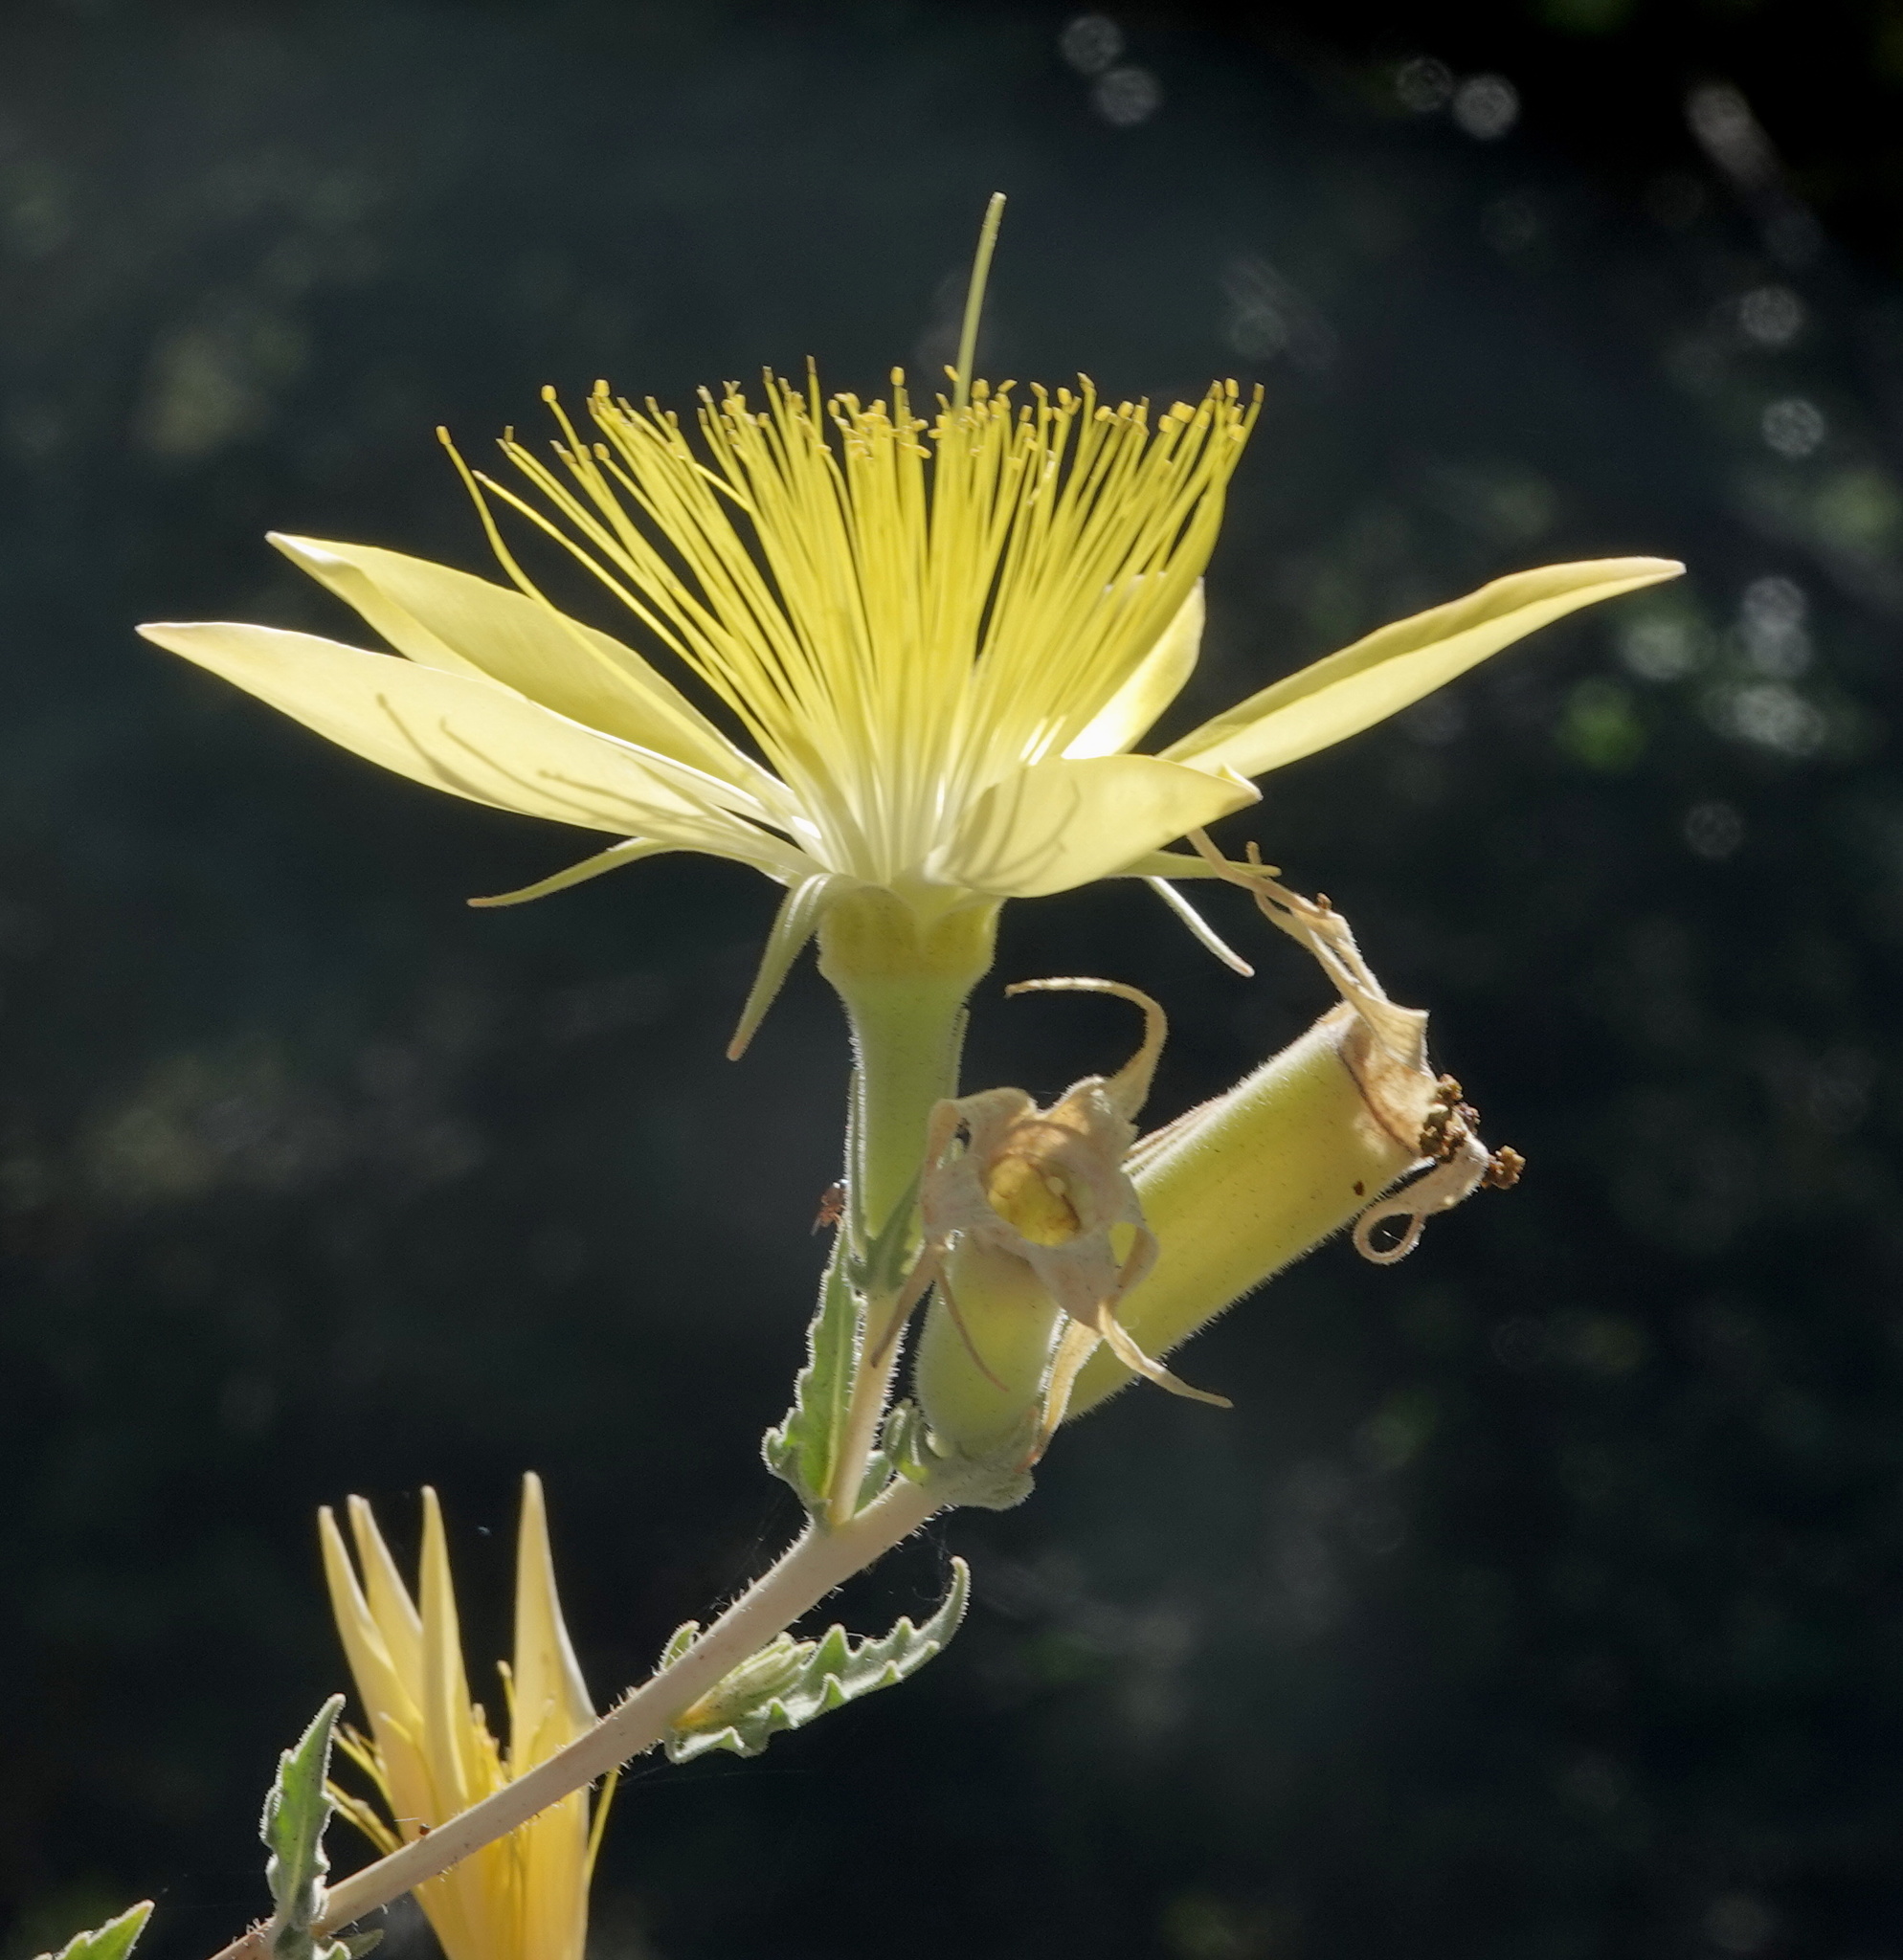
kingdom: Plantae
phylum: Tracheophyta
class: Magnoliopsida
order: Cornales
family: Loasaceae
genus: Mentzelia
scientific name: Mentzelia laevicaulis
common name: Smooth-stem blazingstar
